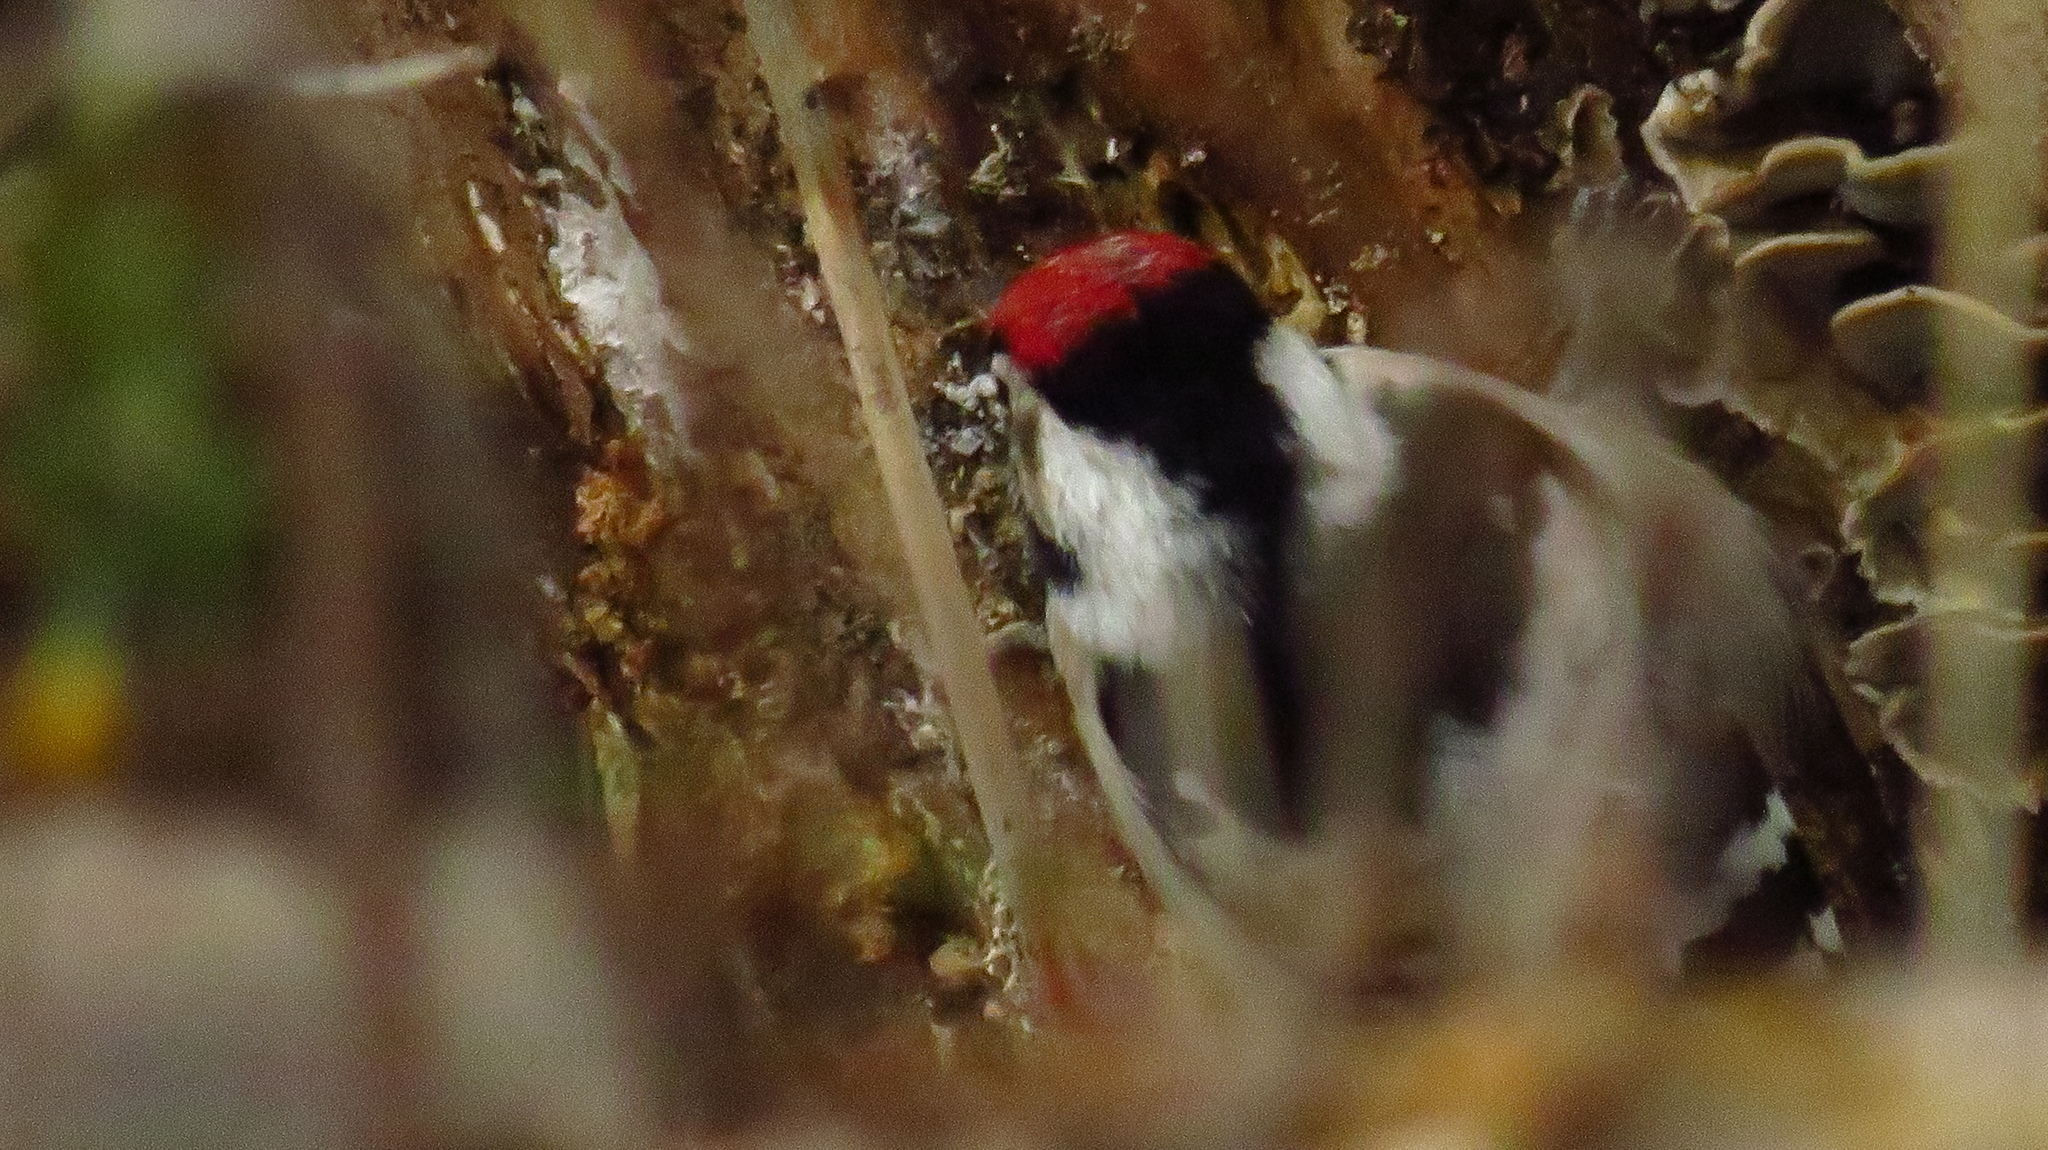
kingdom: Animalia
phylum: Chordata
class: Aves
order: Piciformes
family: Picidae
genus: Dryobates
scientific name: Dryobates minor
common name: Lesser spotted woodpecker
